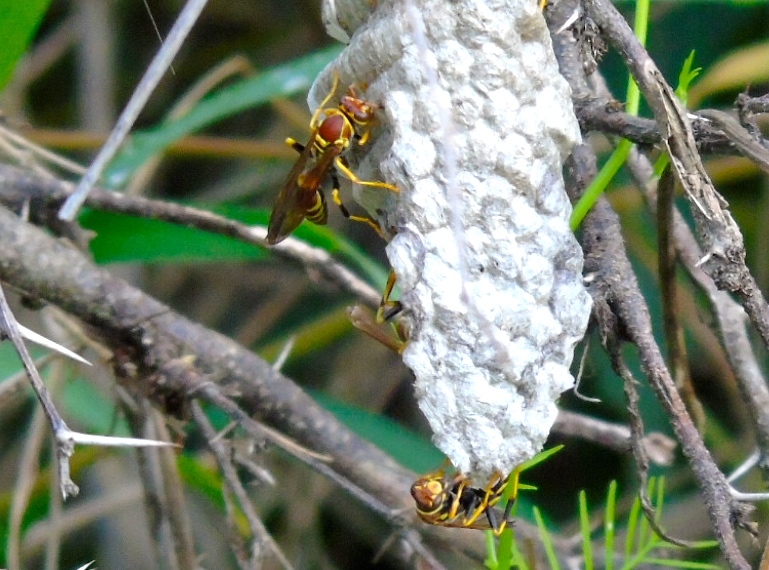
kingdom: Animalia
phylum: Arthropoda
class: Insecta
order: Hymenoptera
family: Eumenidae
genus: Polistes
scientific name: Polistes instabilis
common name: Unstable paper wasp
